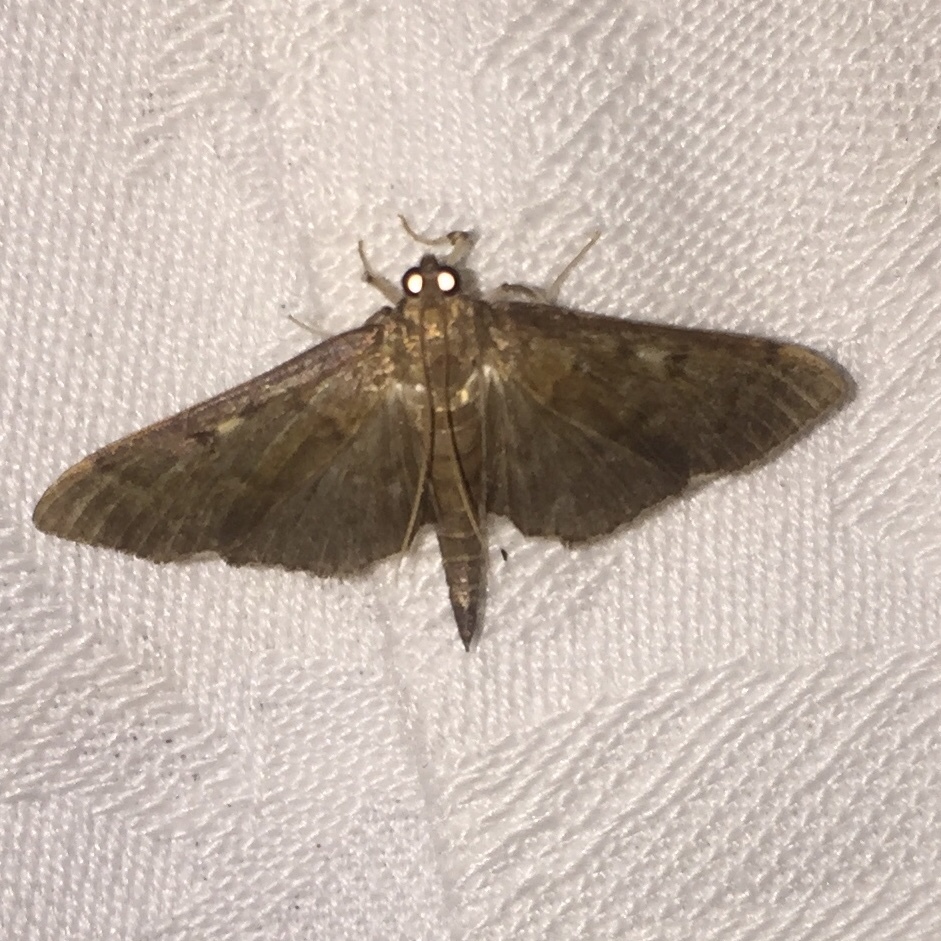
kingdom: Animalia
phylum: Arthropoda
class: Insecta
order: Lepidoptera
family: Crambidae
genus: Herpetogramma
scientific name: Herpetogramma sphingealis
